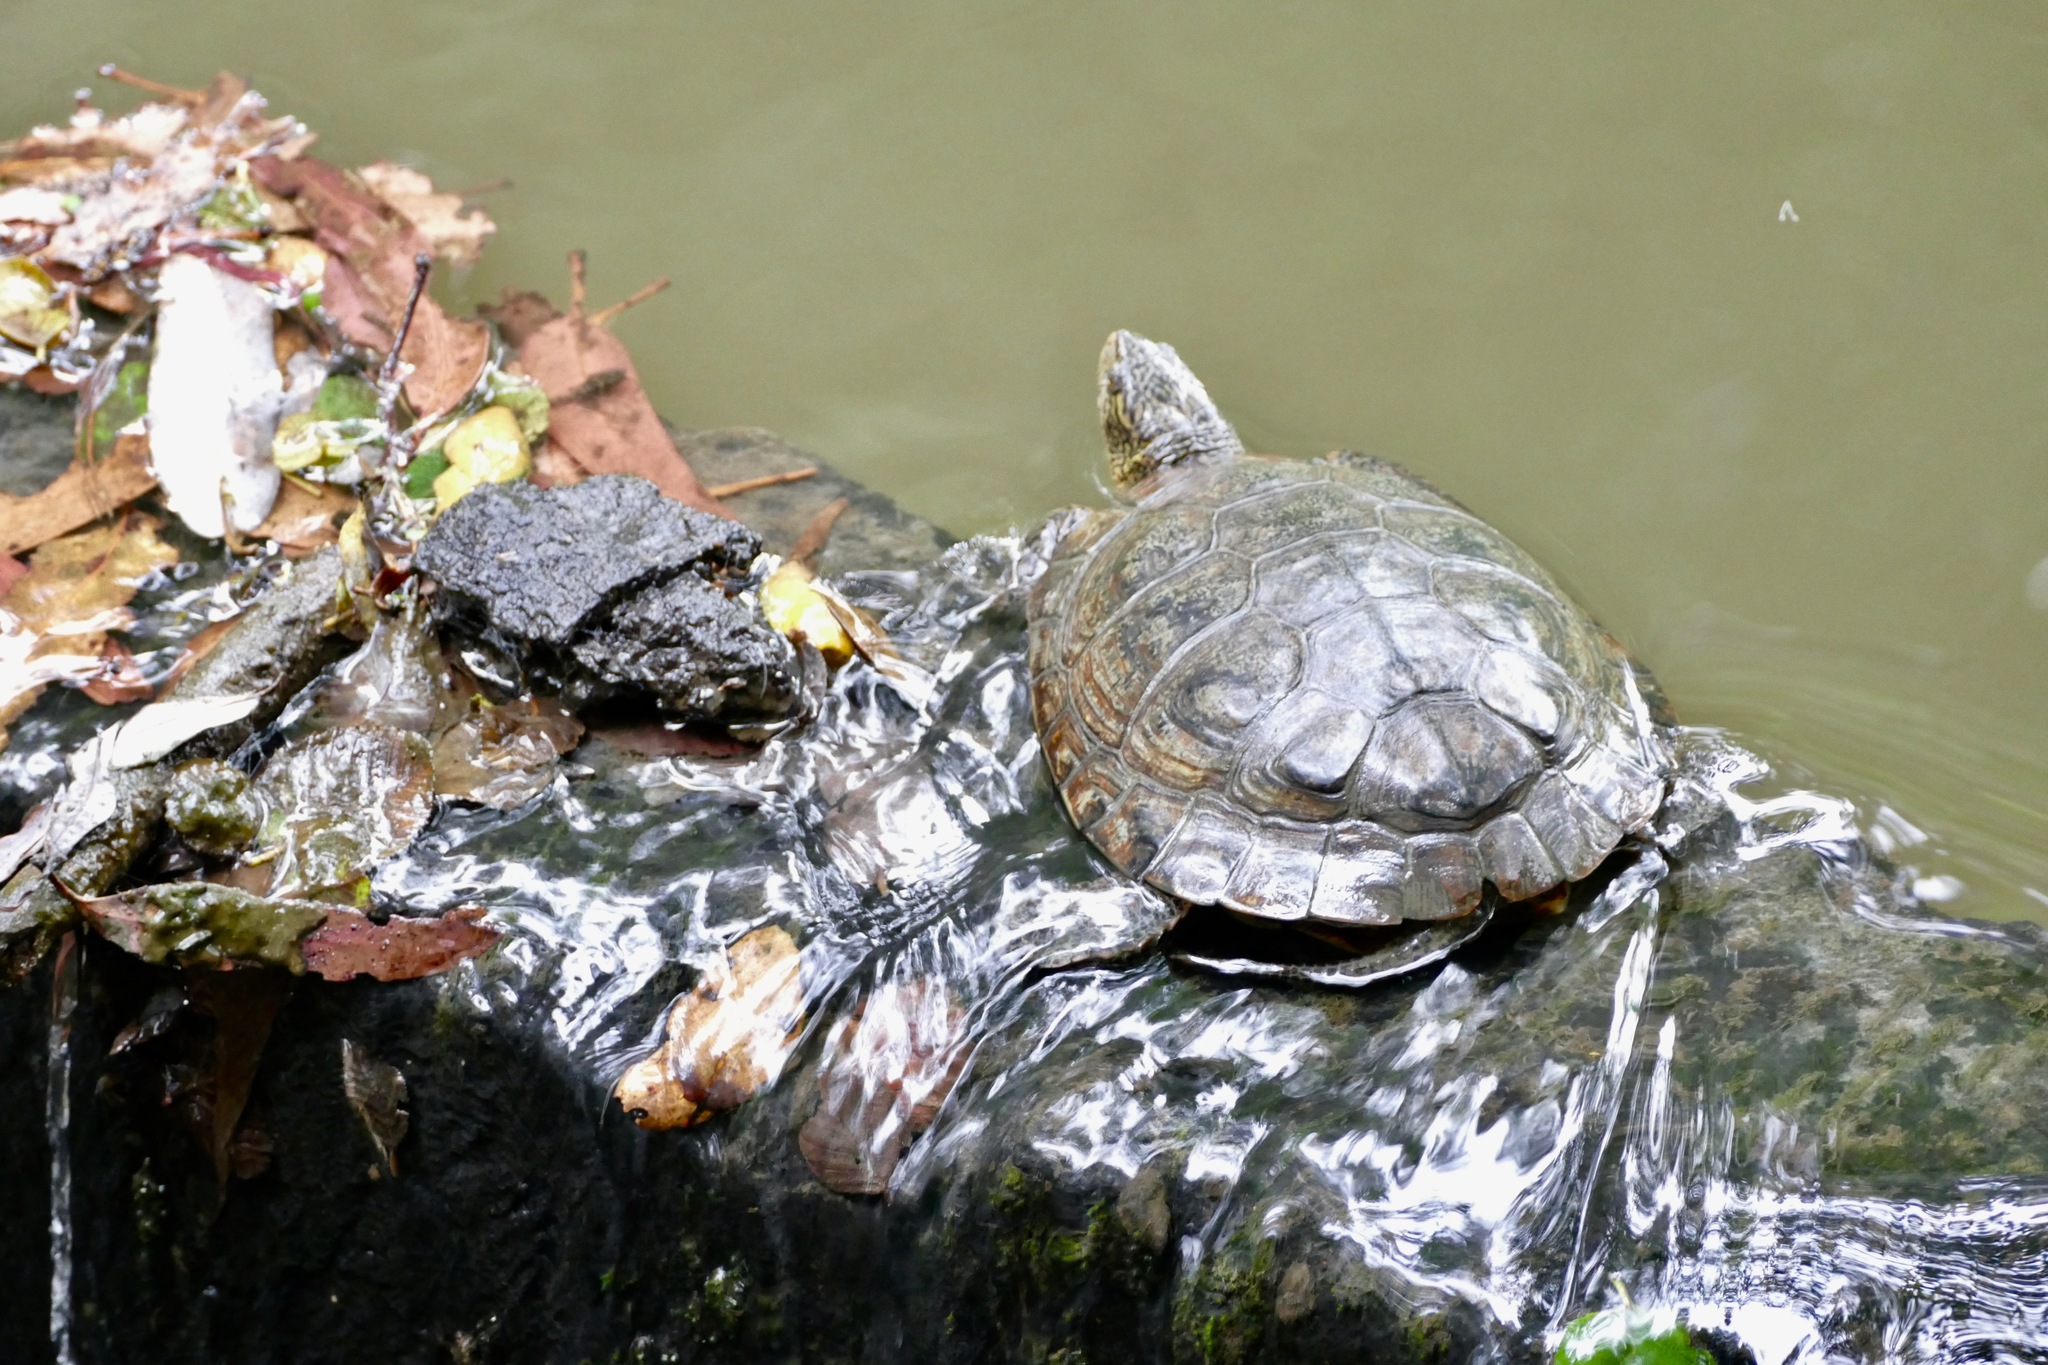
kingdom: Animalia
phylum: Chordata
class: Testudines
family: Emydidae
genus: Actinemys
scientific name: Actinemys marmorata
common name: Western pond turtle
